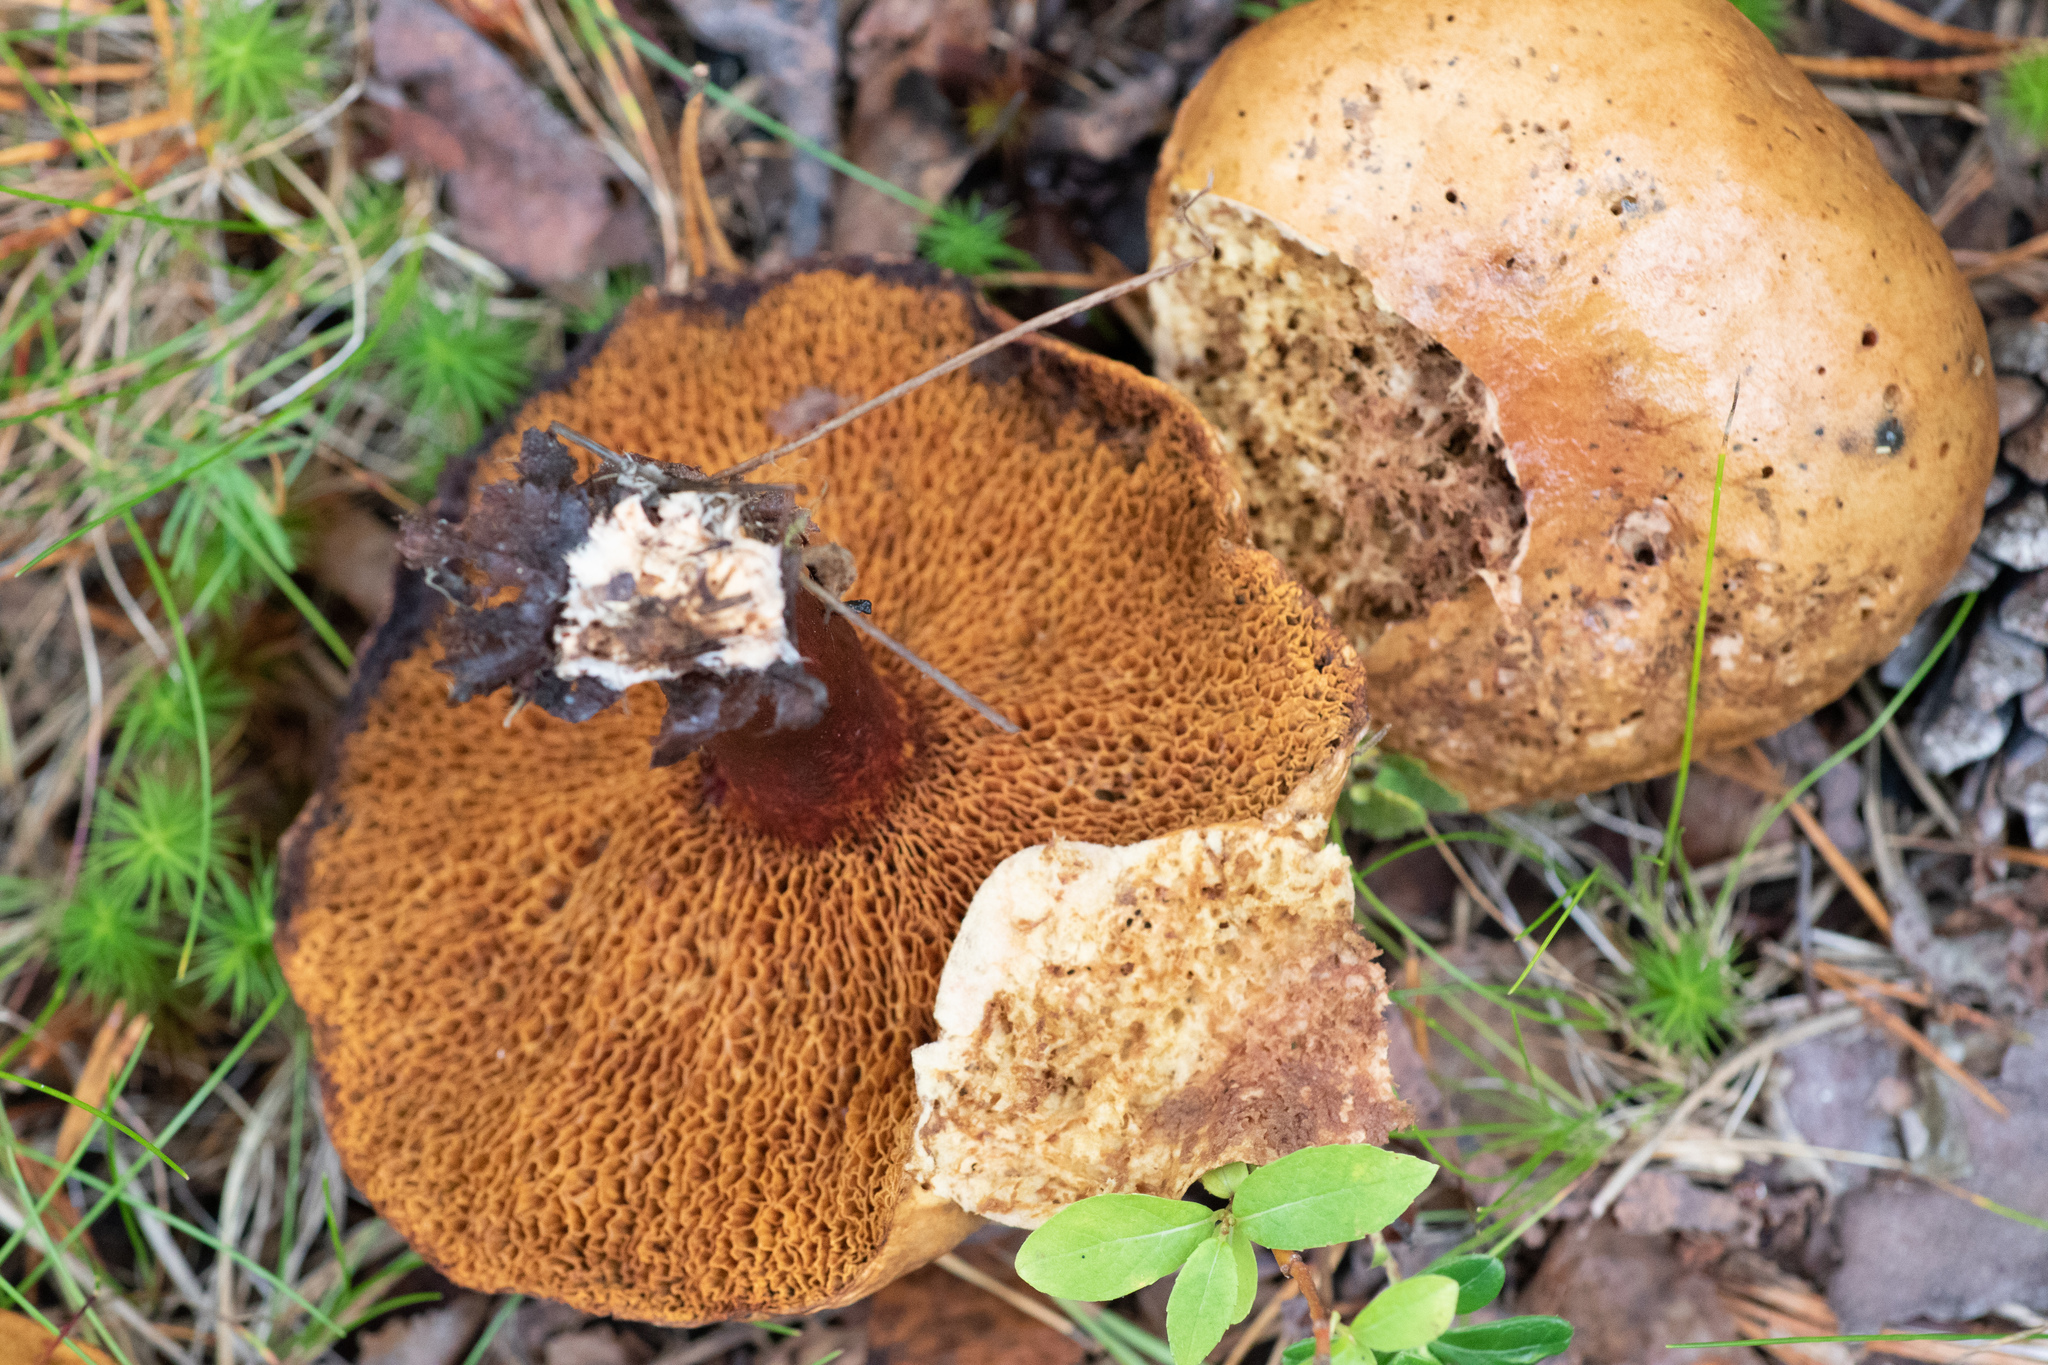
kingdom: Fungi
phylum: Basidiomycota
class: Agaricomycetes
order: Boletales
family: Suillaceae
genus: Suillus
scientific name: Suillus bovinus
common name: Bovine bolete
